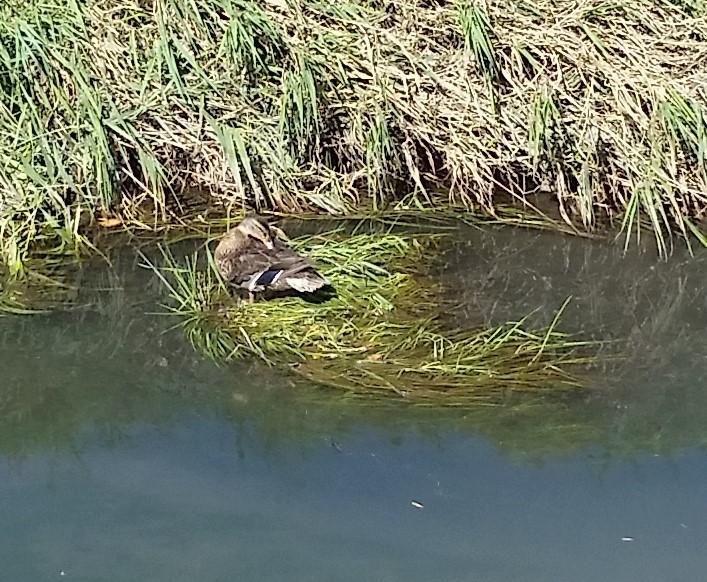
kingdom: Animalia
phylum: Chordata
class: Aves
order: Anseriformes
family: Anatidae
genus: Anas
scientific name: Anas platyrhynchos
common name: Mallard
